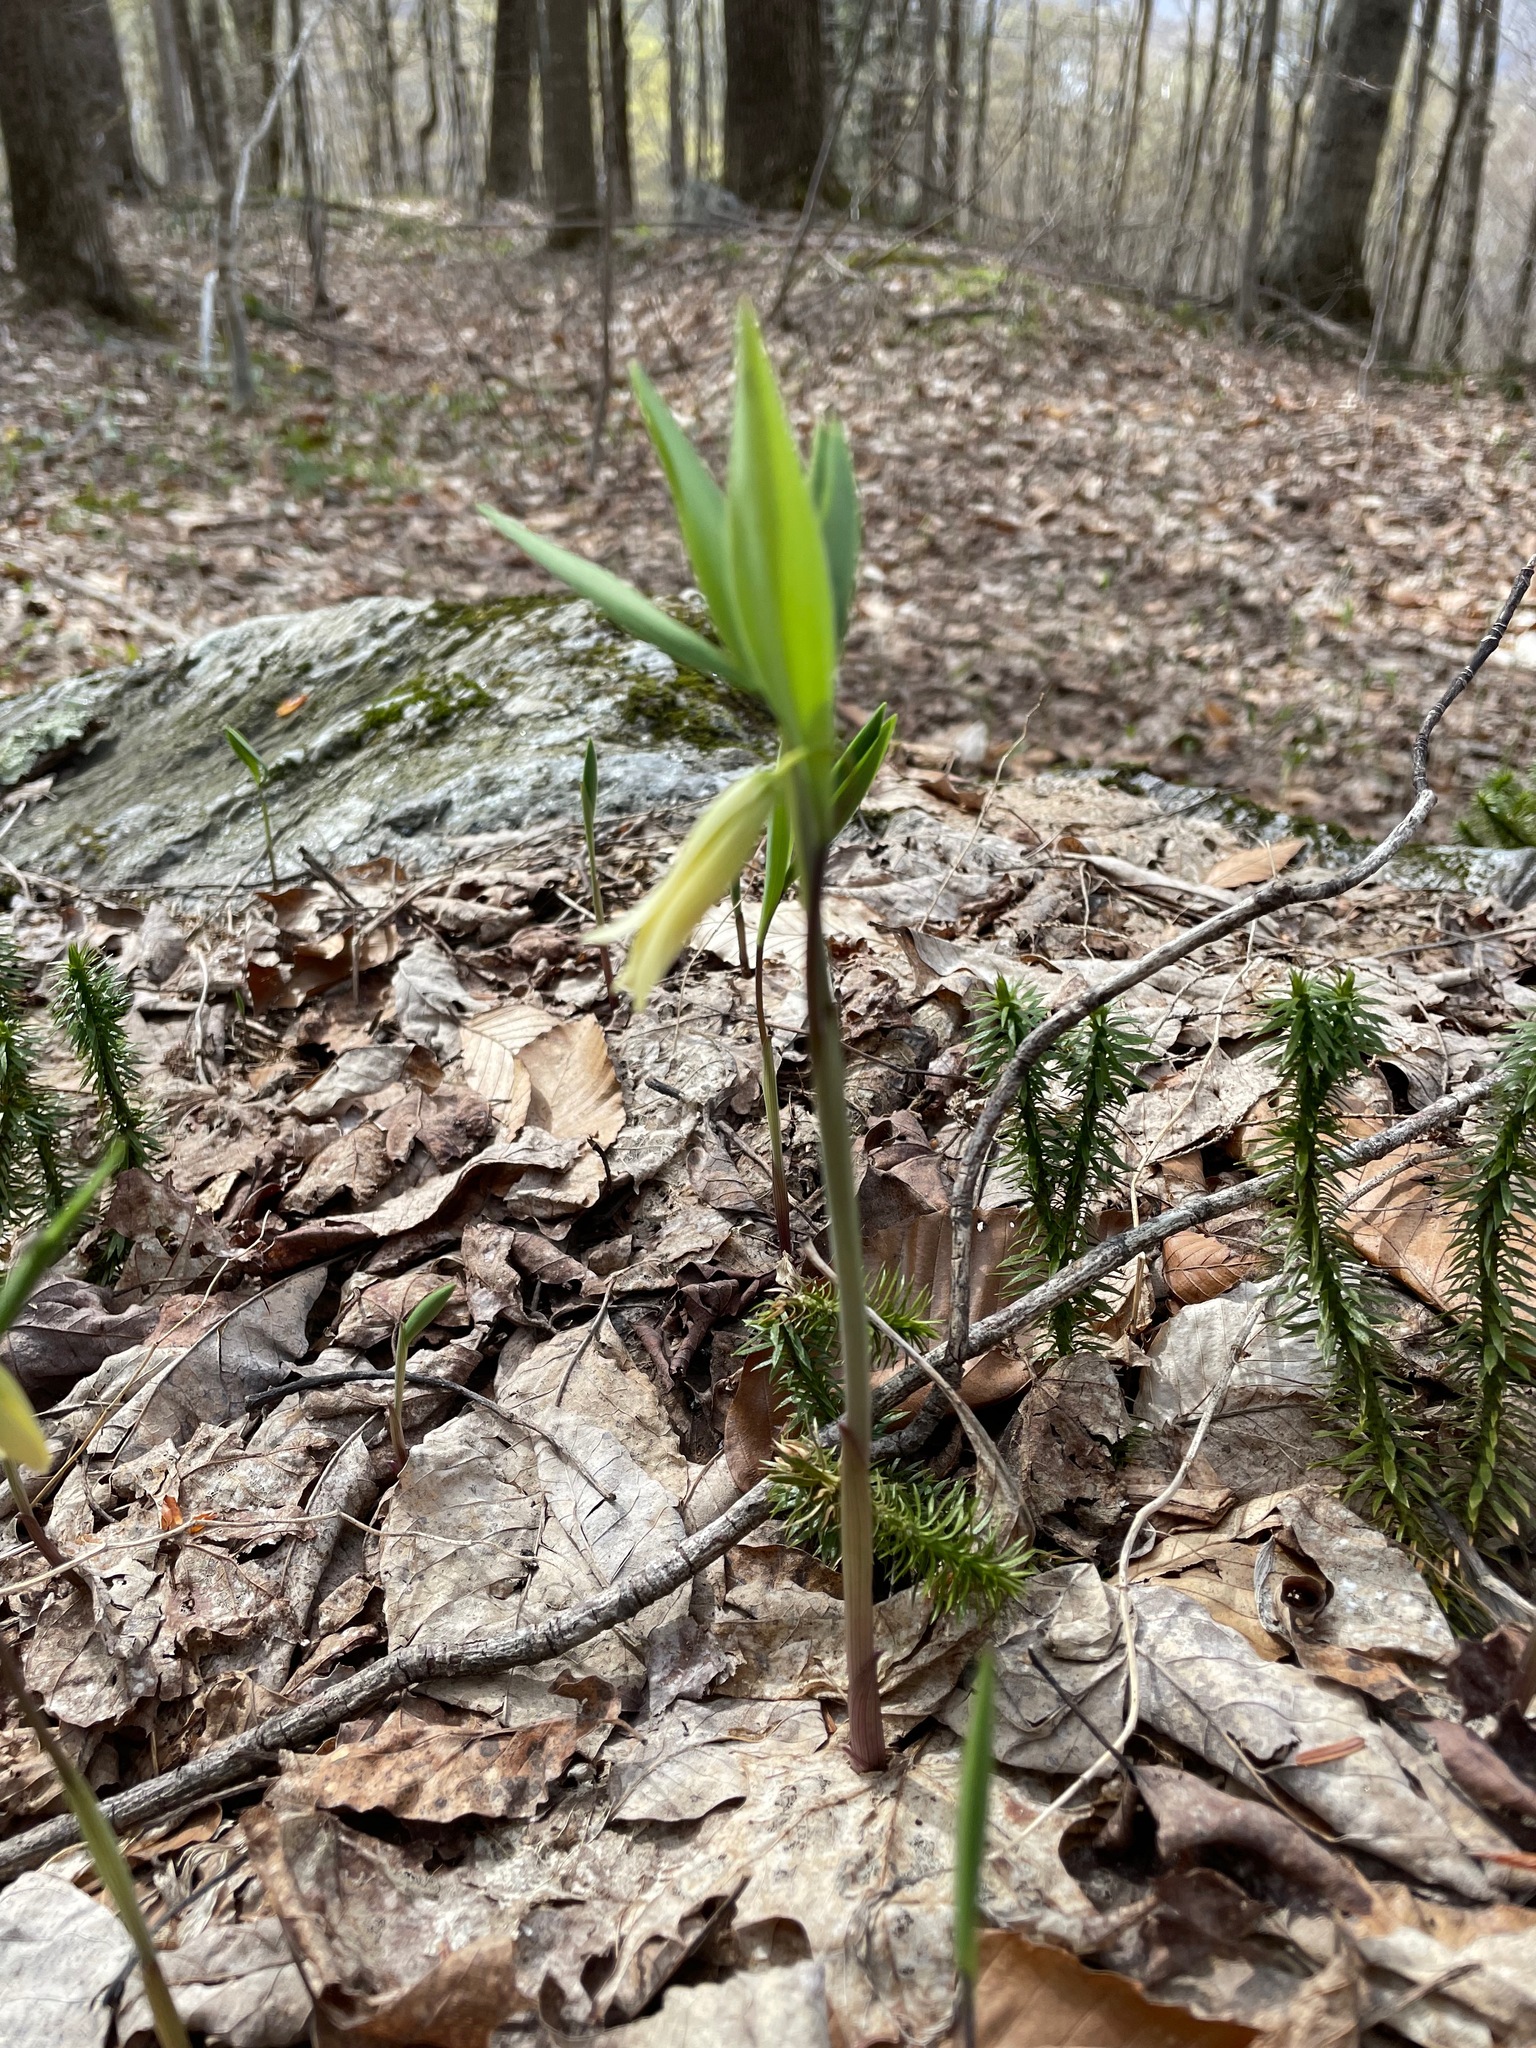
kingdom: Plantae
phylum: Tracheophyta
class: Liliopsida
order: Liliales
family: Colchicaceae
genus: Uvularia
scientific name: Uvularia sessilifolia
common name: Straw-lily
